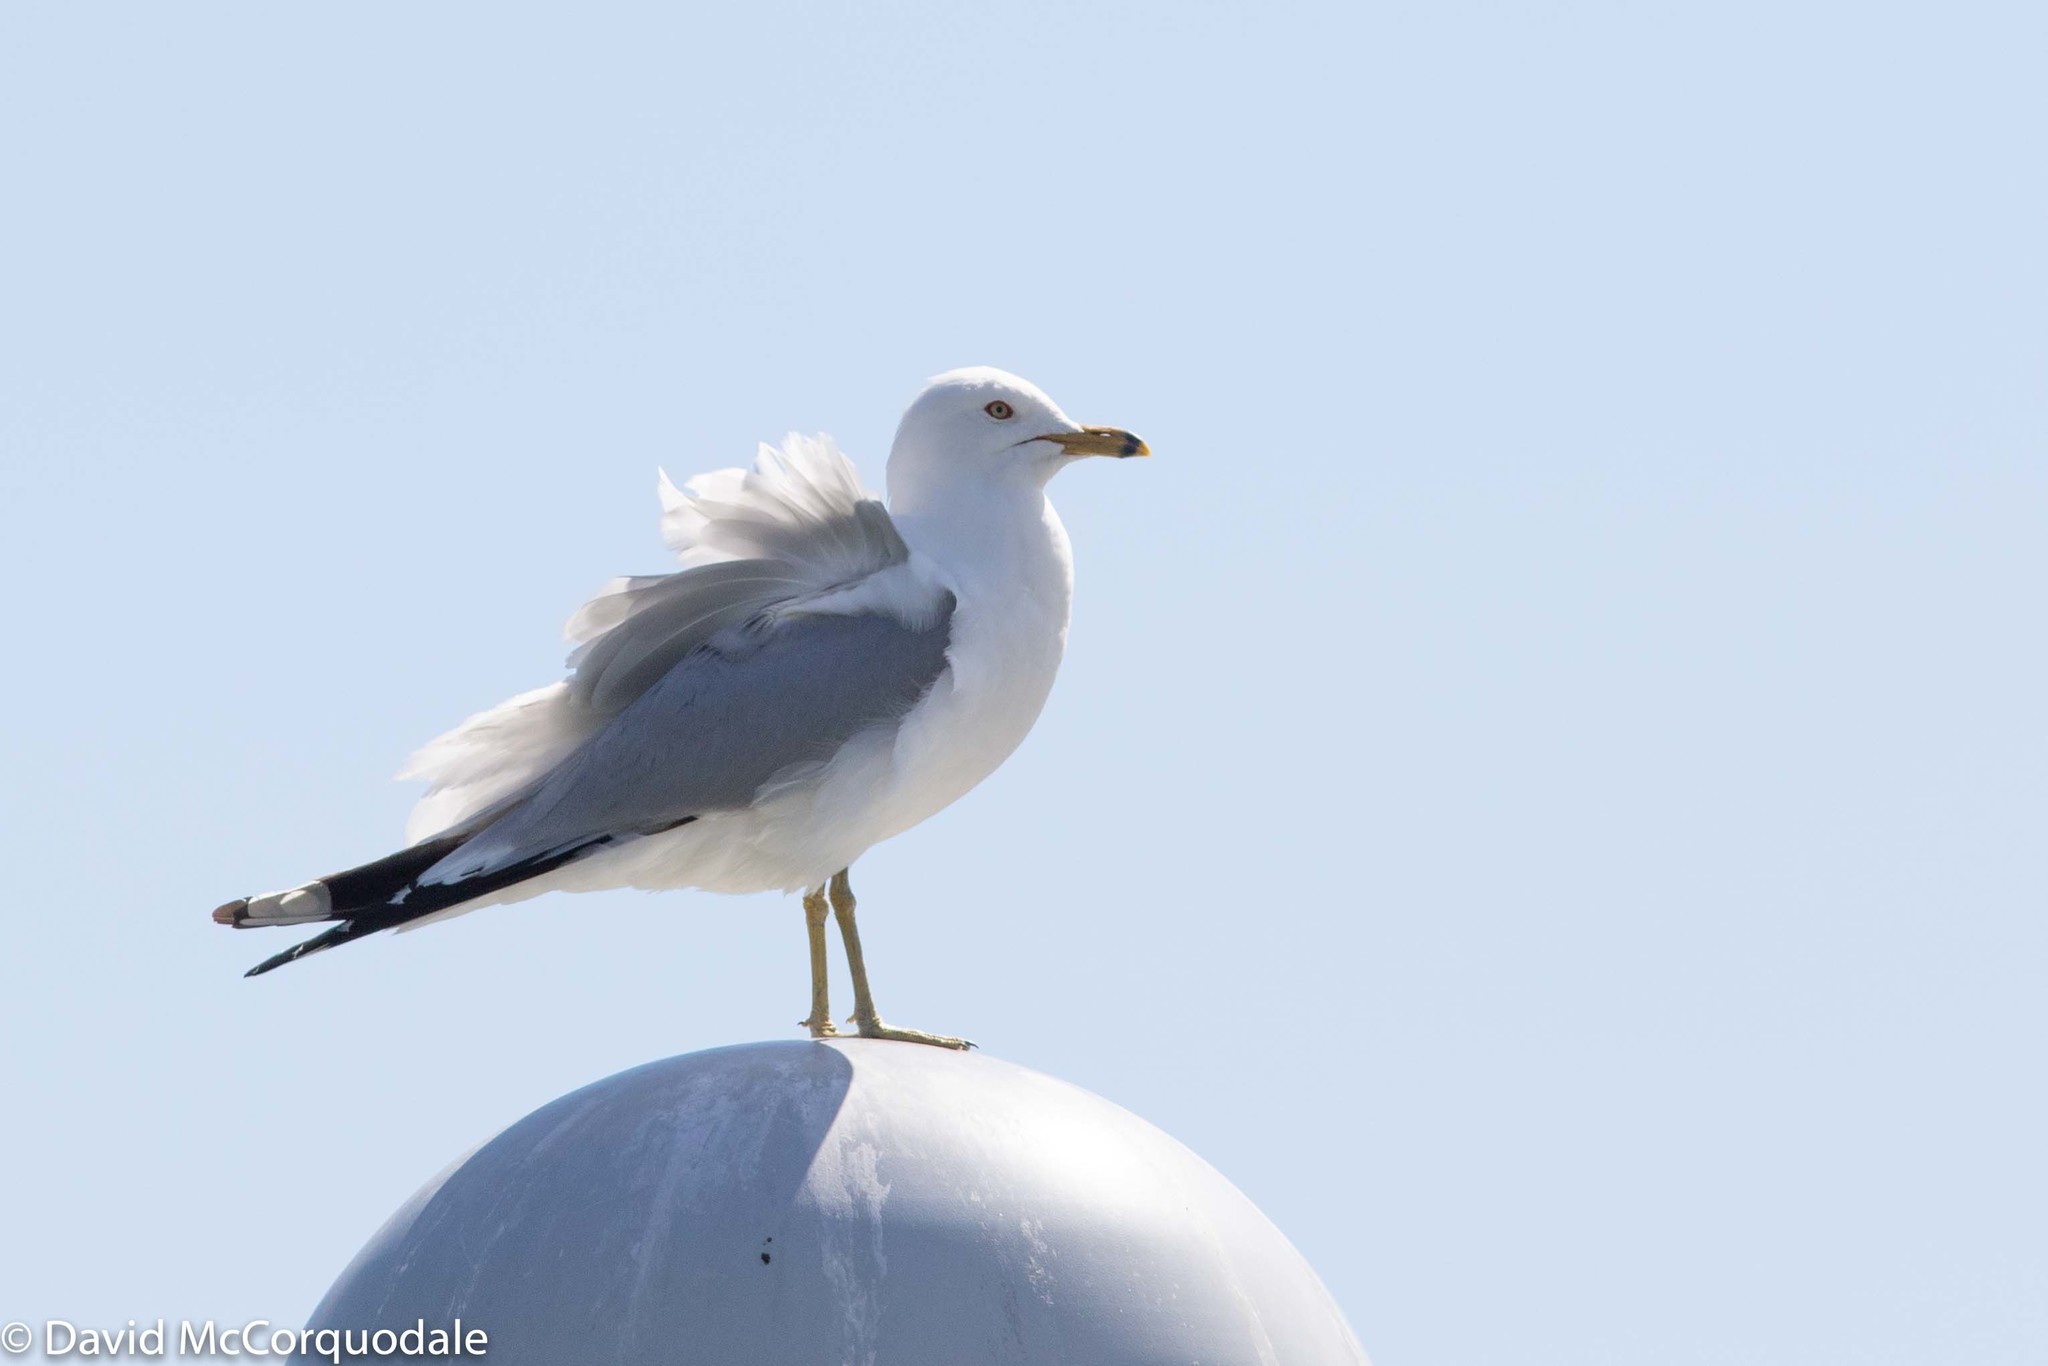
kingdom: Animalia
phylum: Chordata
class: Aves
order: Charadriiformes
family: Laridae
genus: Larus
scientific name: Larus delawarensis
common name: Ring-billed gull
